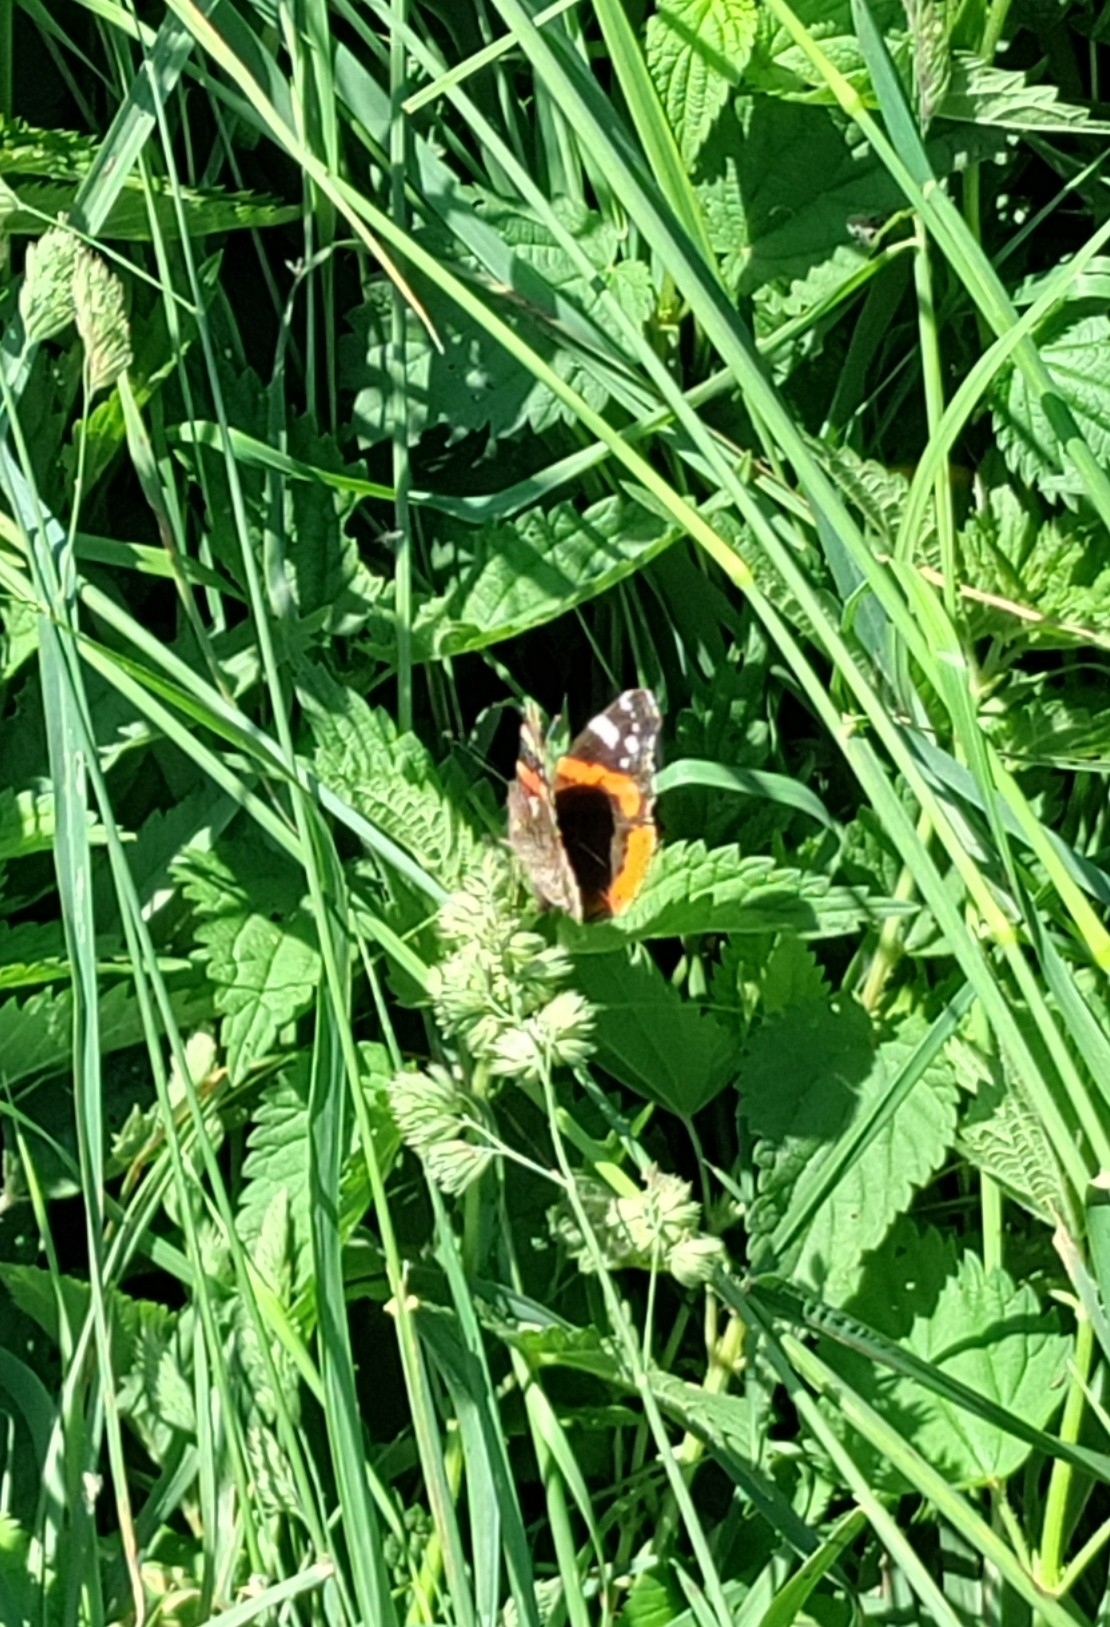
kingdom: Animalia
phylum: Arthropoda
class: Insecta
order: Lepidoptera
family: Nymphalidae
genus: Vanessa
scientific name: Vanessa atalanta
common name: Red admiral
